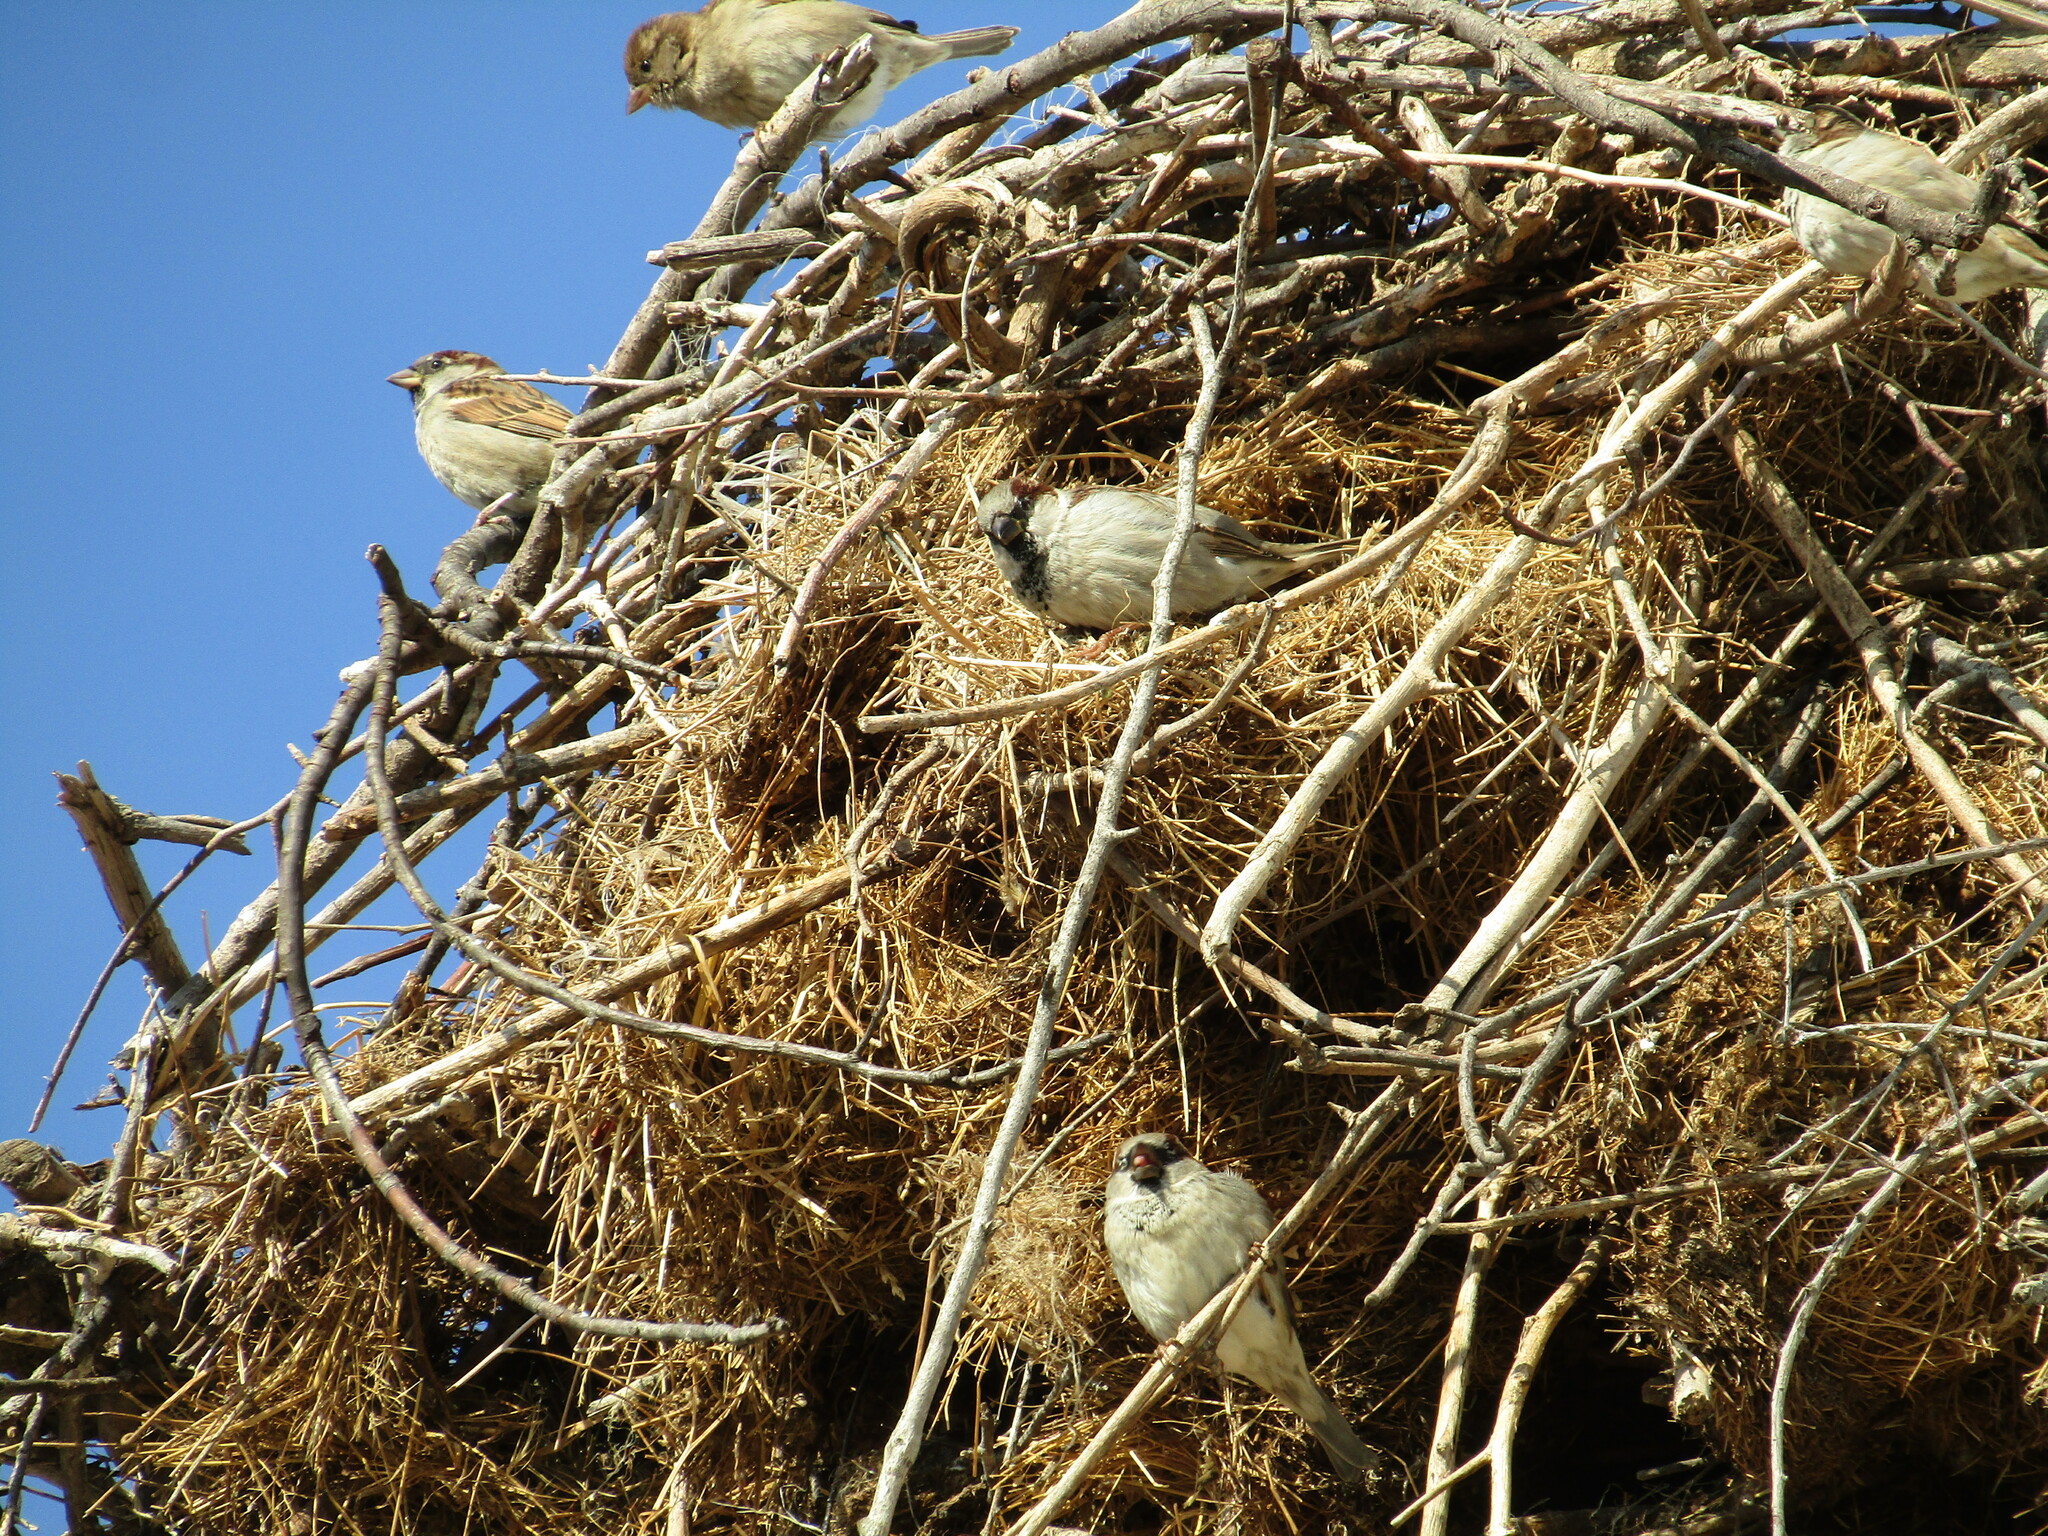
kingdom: Animalia
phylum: Chordata
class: Aves
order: Passeriformes
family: Passeridae
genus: Passer
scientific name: Passer domesticus
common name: House sparrow
